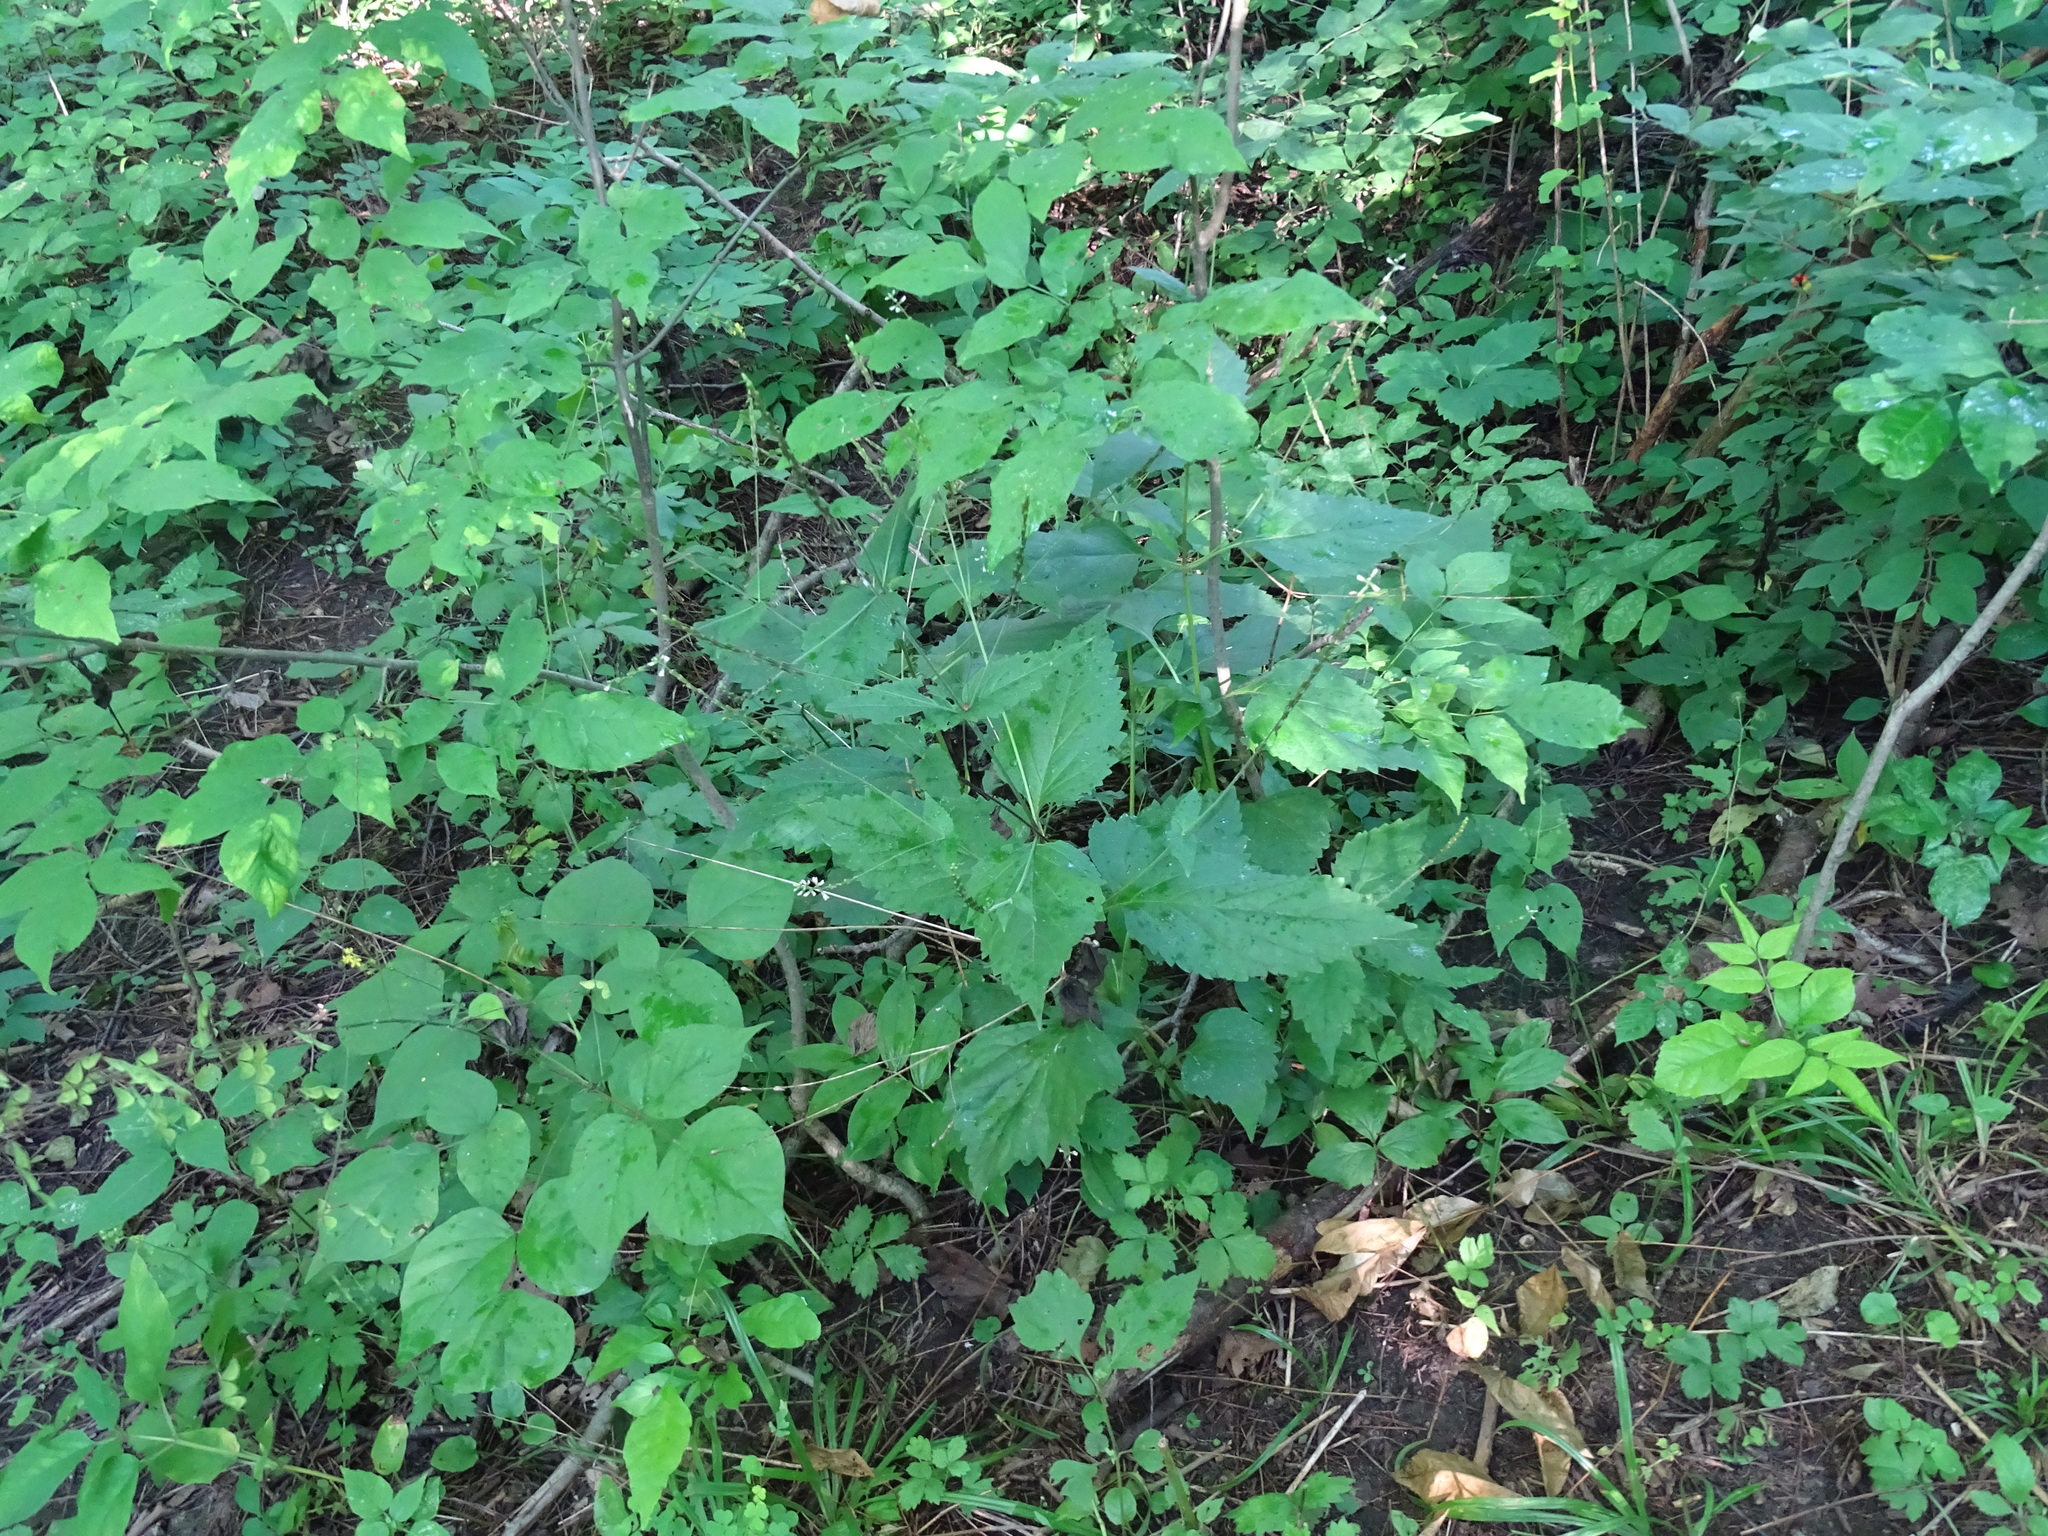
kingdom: Plantae
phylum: Tracheophyta
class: Magnoliopsida
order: Lamiales
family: Phrymaceae
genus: Phryma
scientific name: Phryma leptostachya
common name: American lopseed
